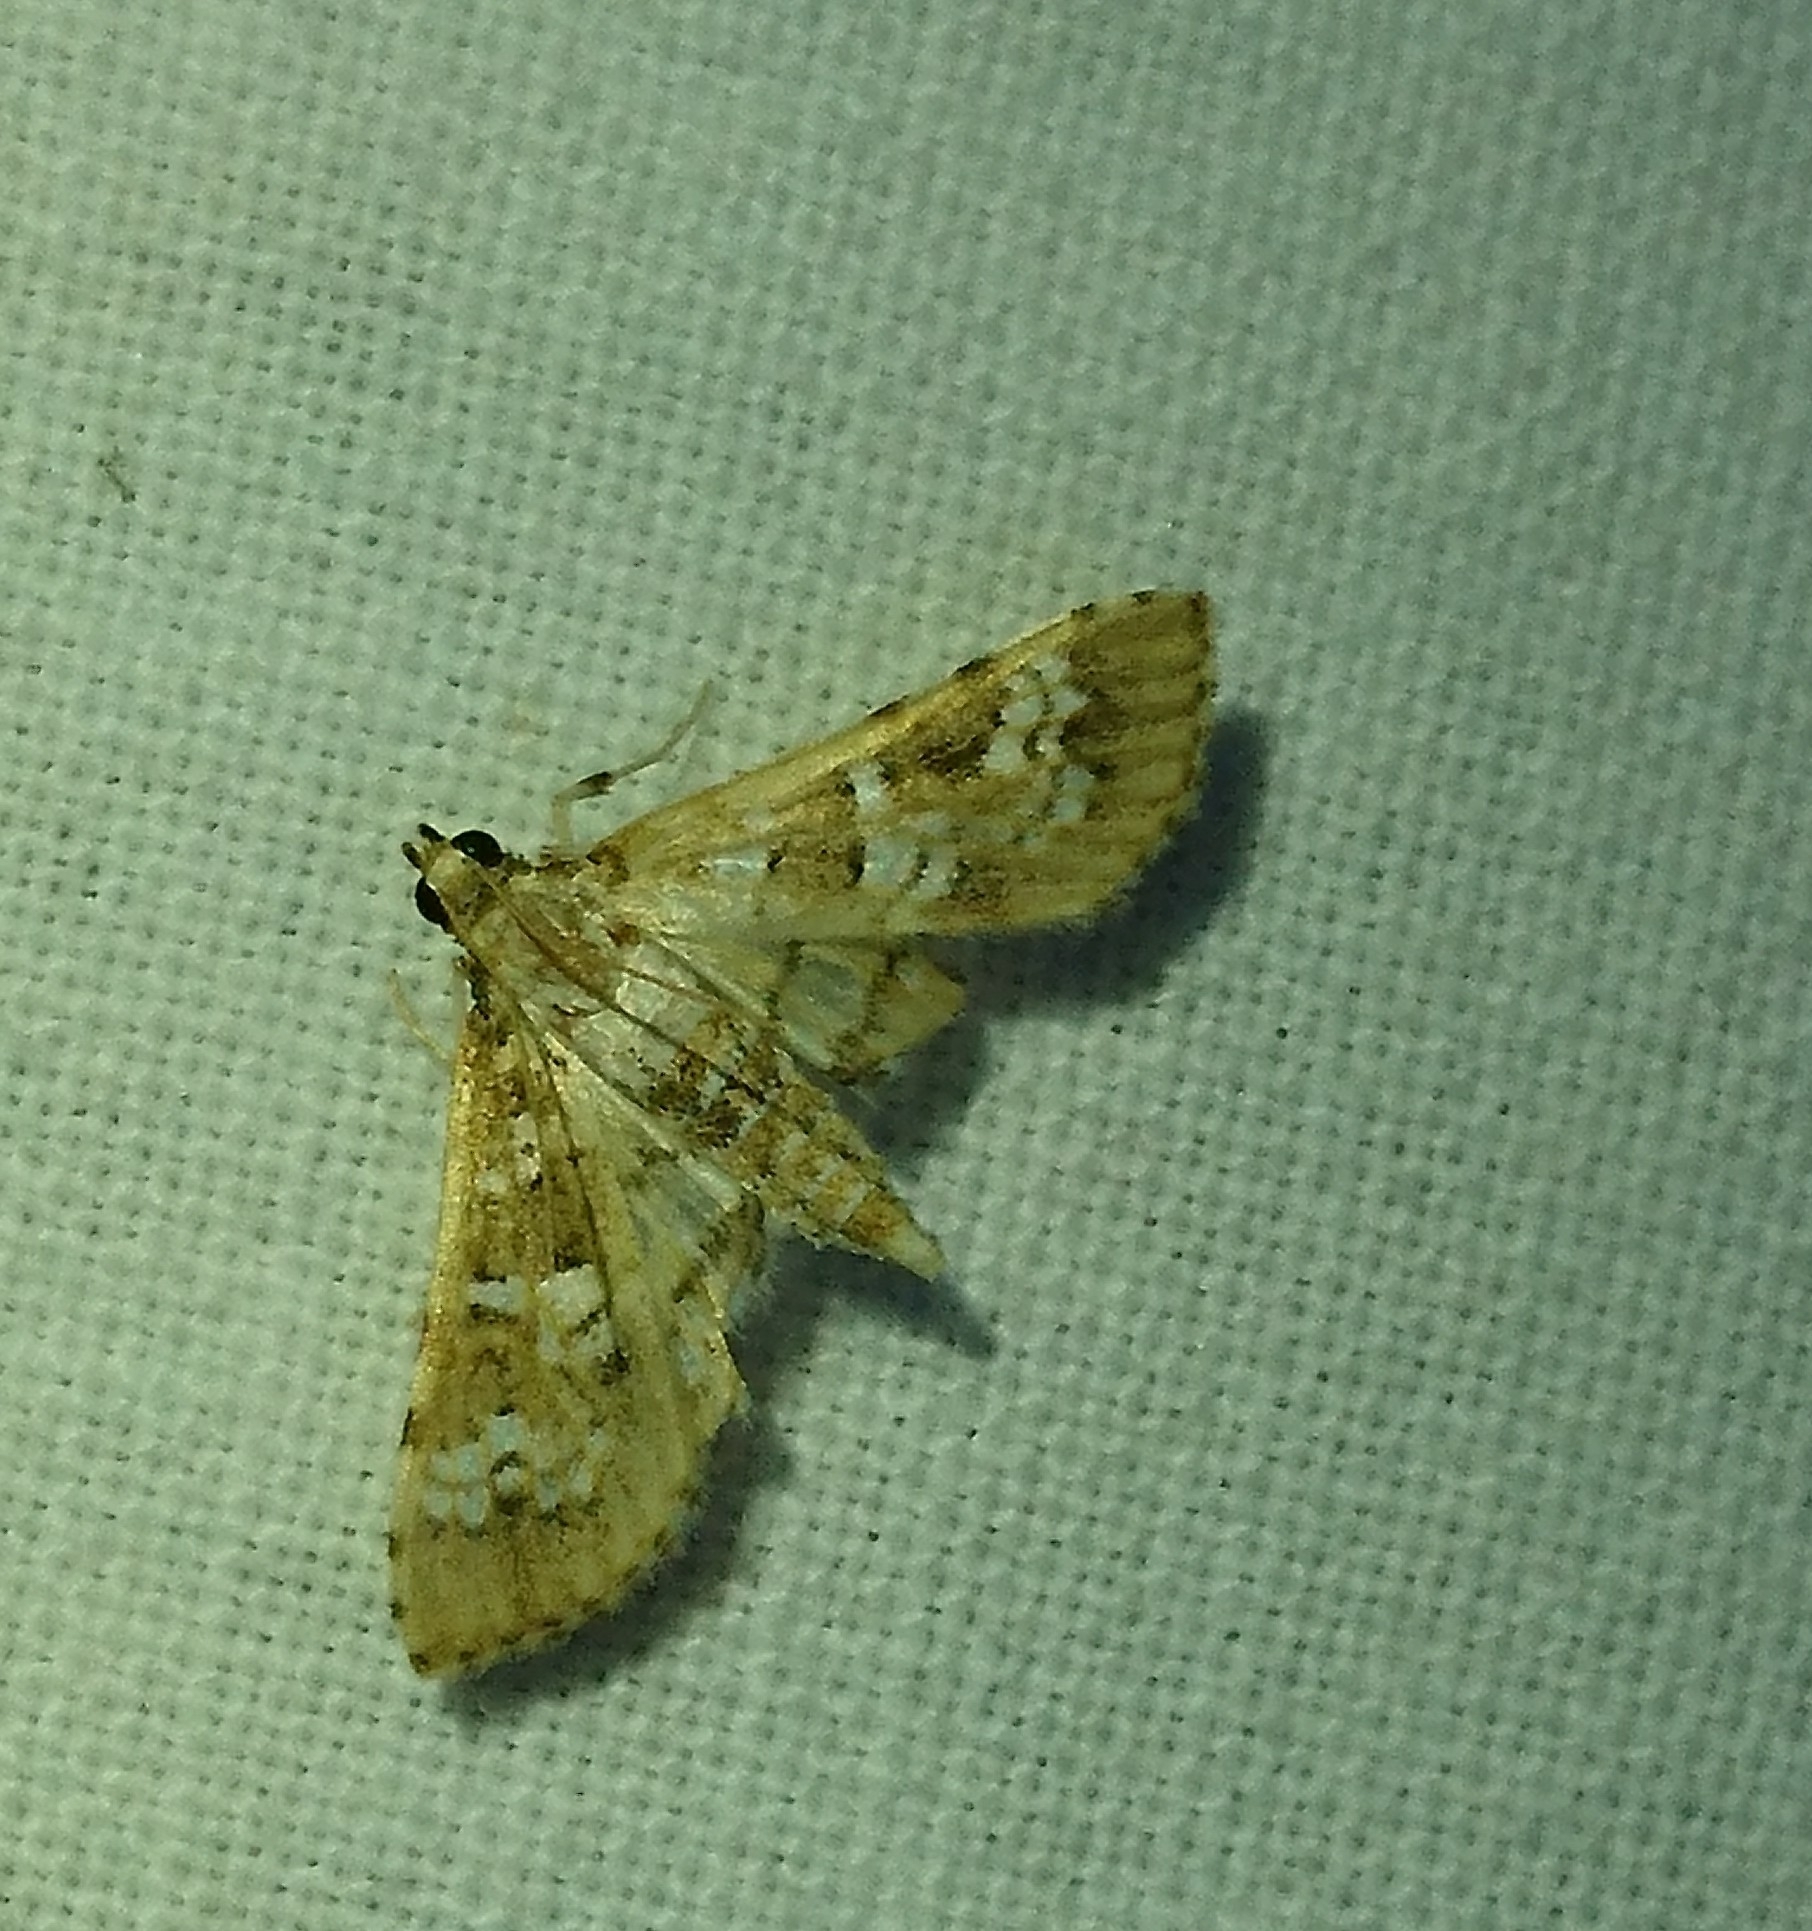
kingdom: Animalia
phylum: Arthropoda
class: Insecta
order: Lepidoptera
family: Crambidae
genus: Samea
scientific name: Samea multiplicalis
